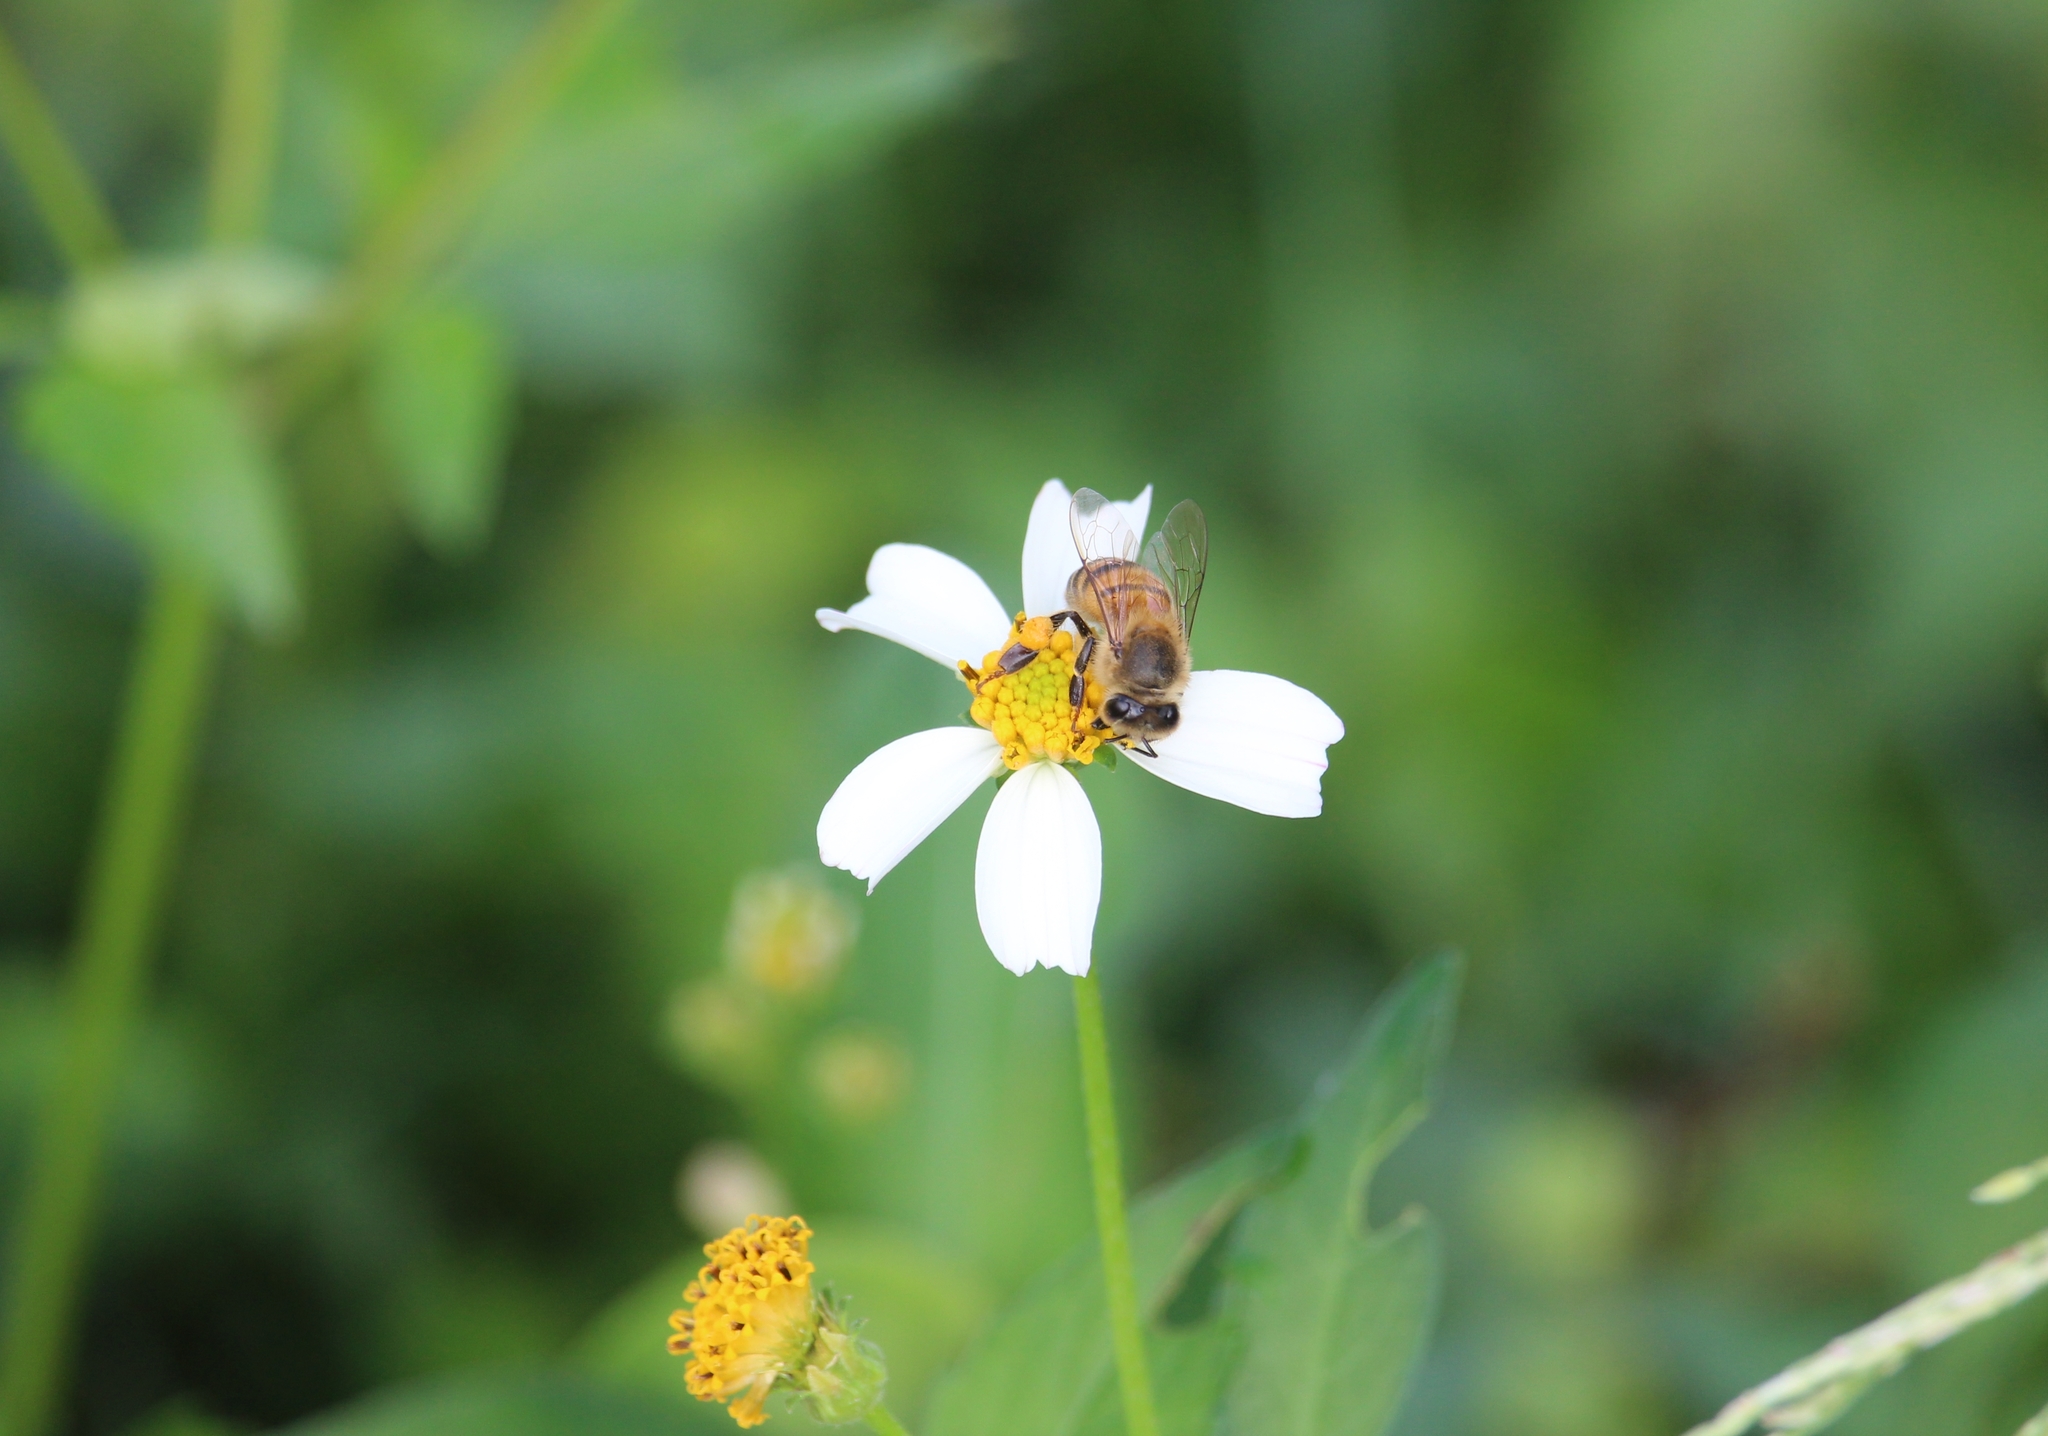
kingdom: Animalia
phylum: Arthropoda
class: Insecta
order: Hymenoptera
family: Apidae
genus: Apis
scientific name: Apis mellifera
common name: Honey bee
